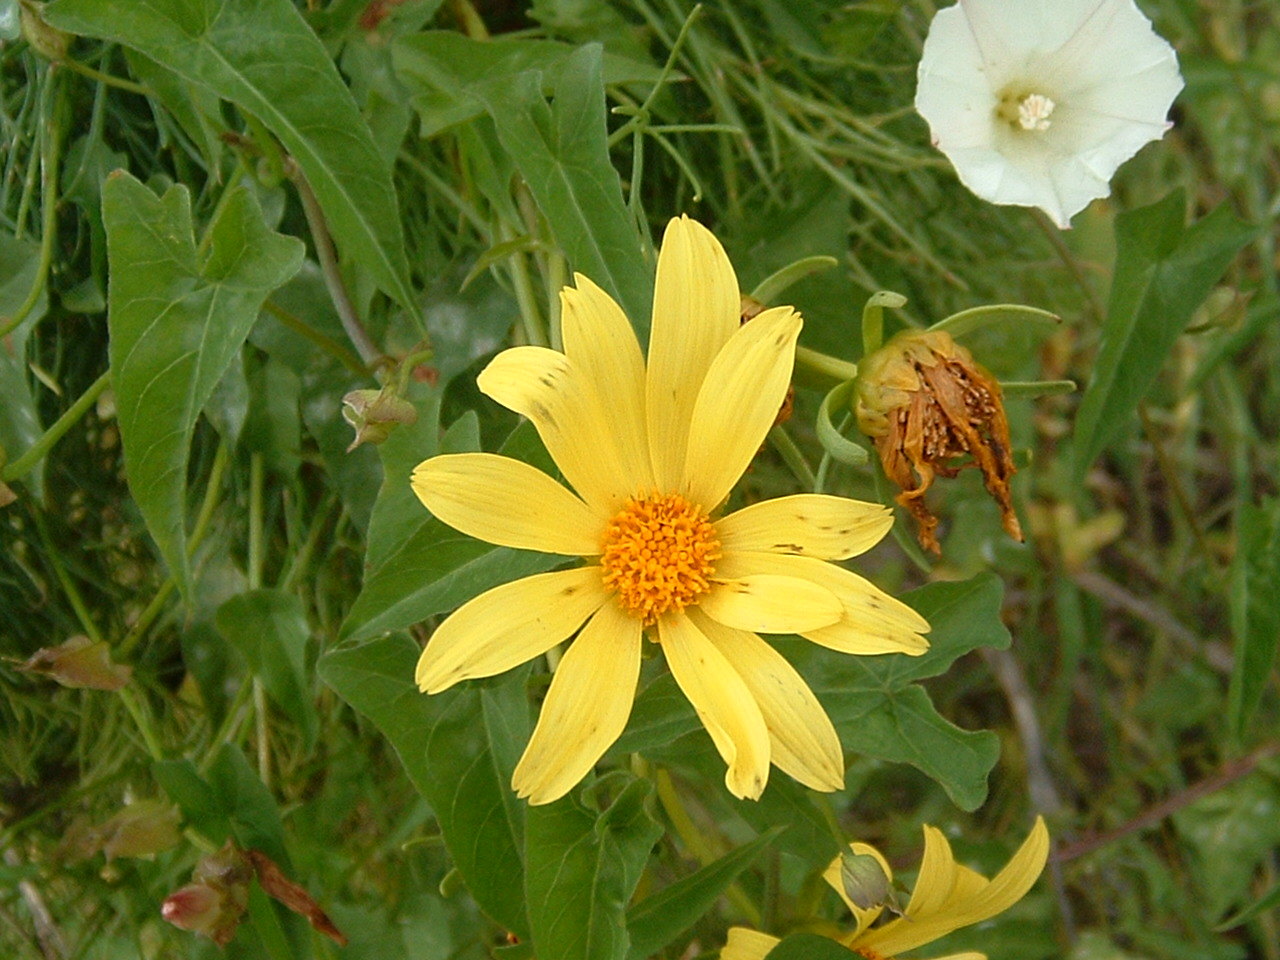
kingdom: Plantae
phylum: Tracheophyta
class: Magnoliopsida
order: Asterales
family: Asteraceae
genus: Coreopsis
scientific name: Coreopsis gigantea
